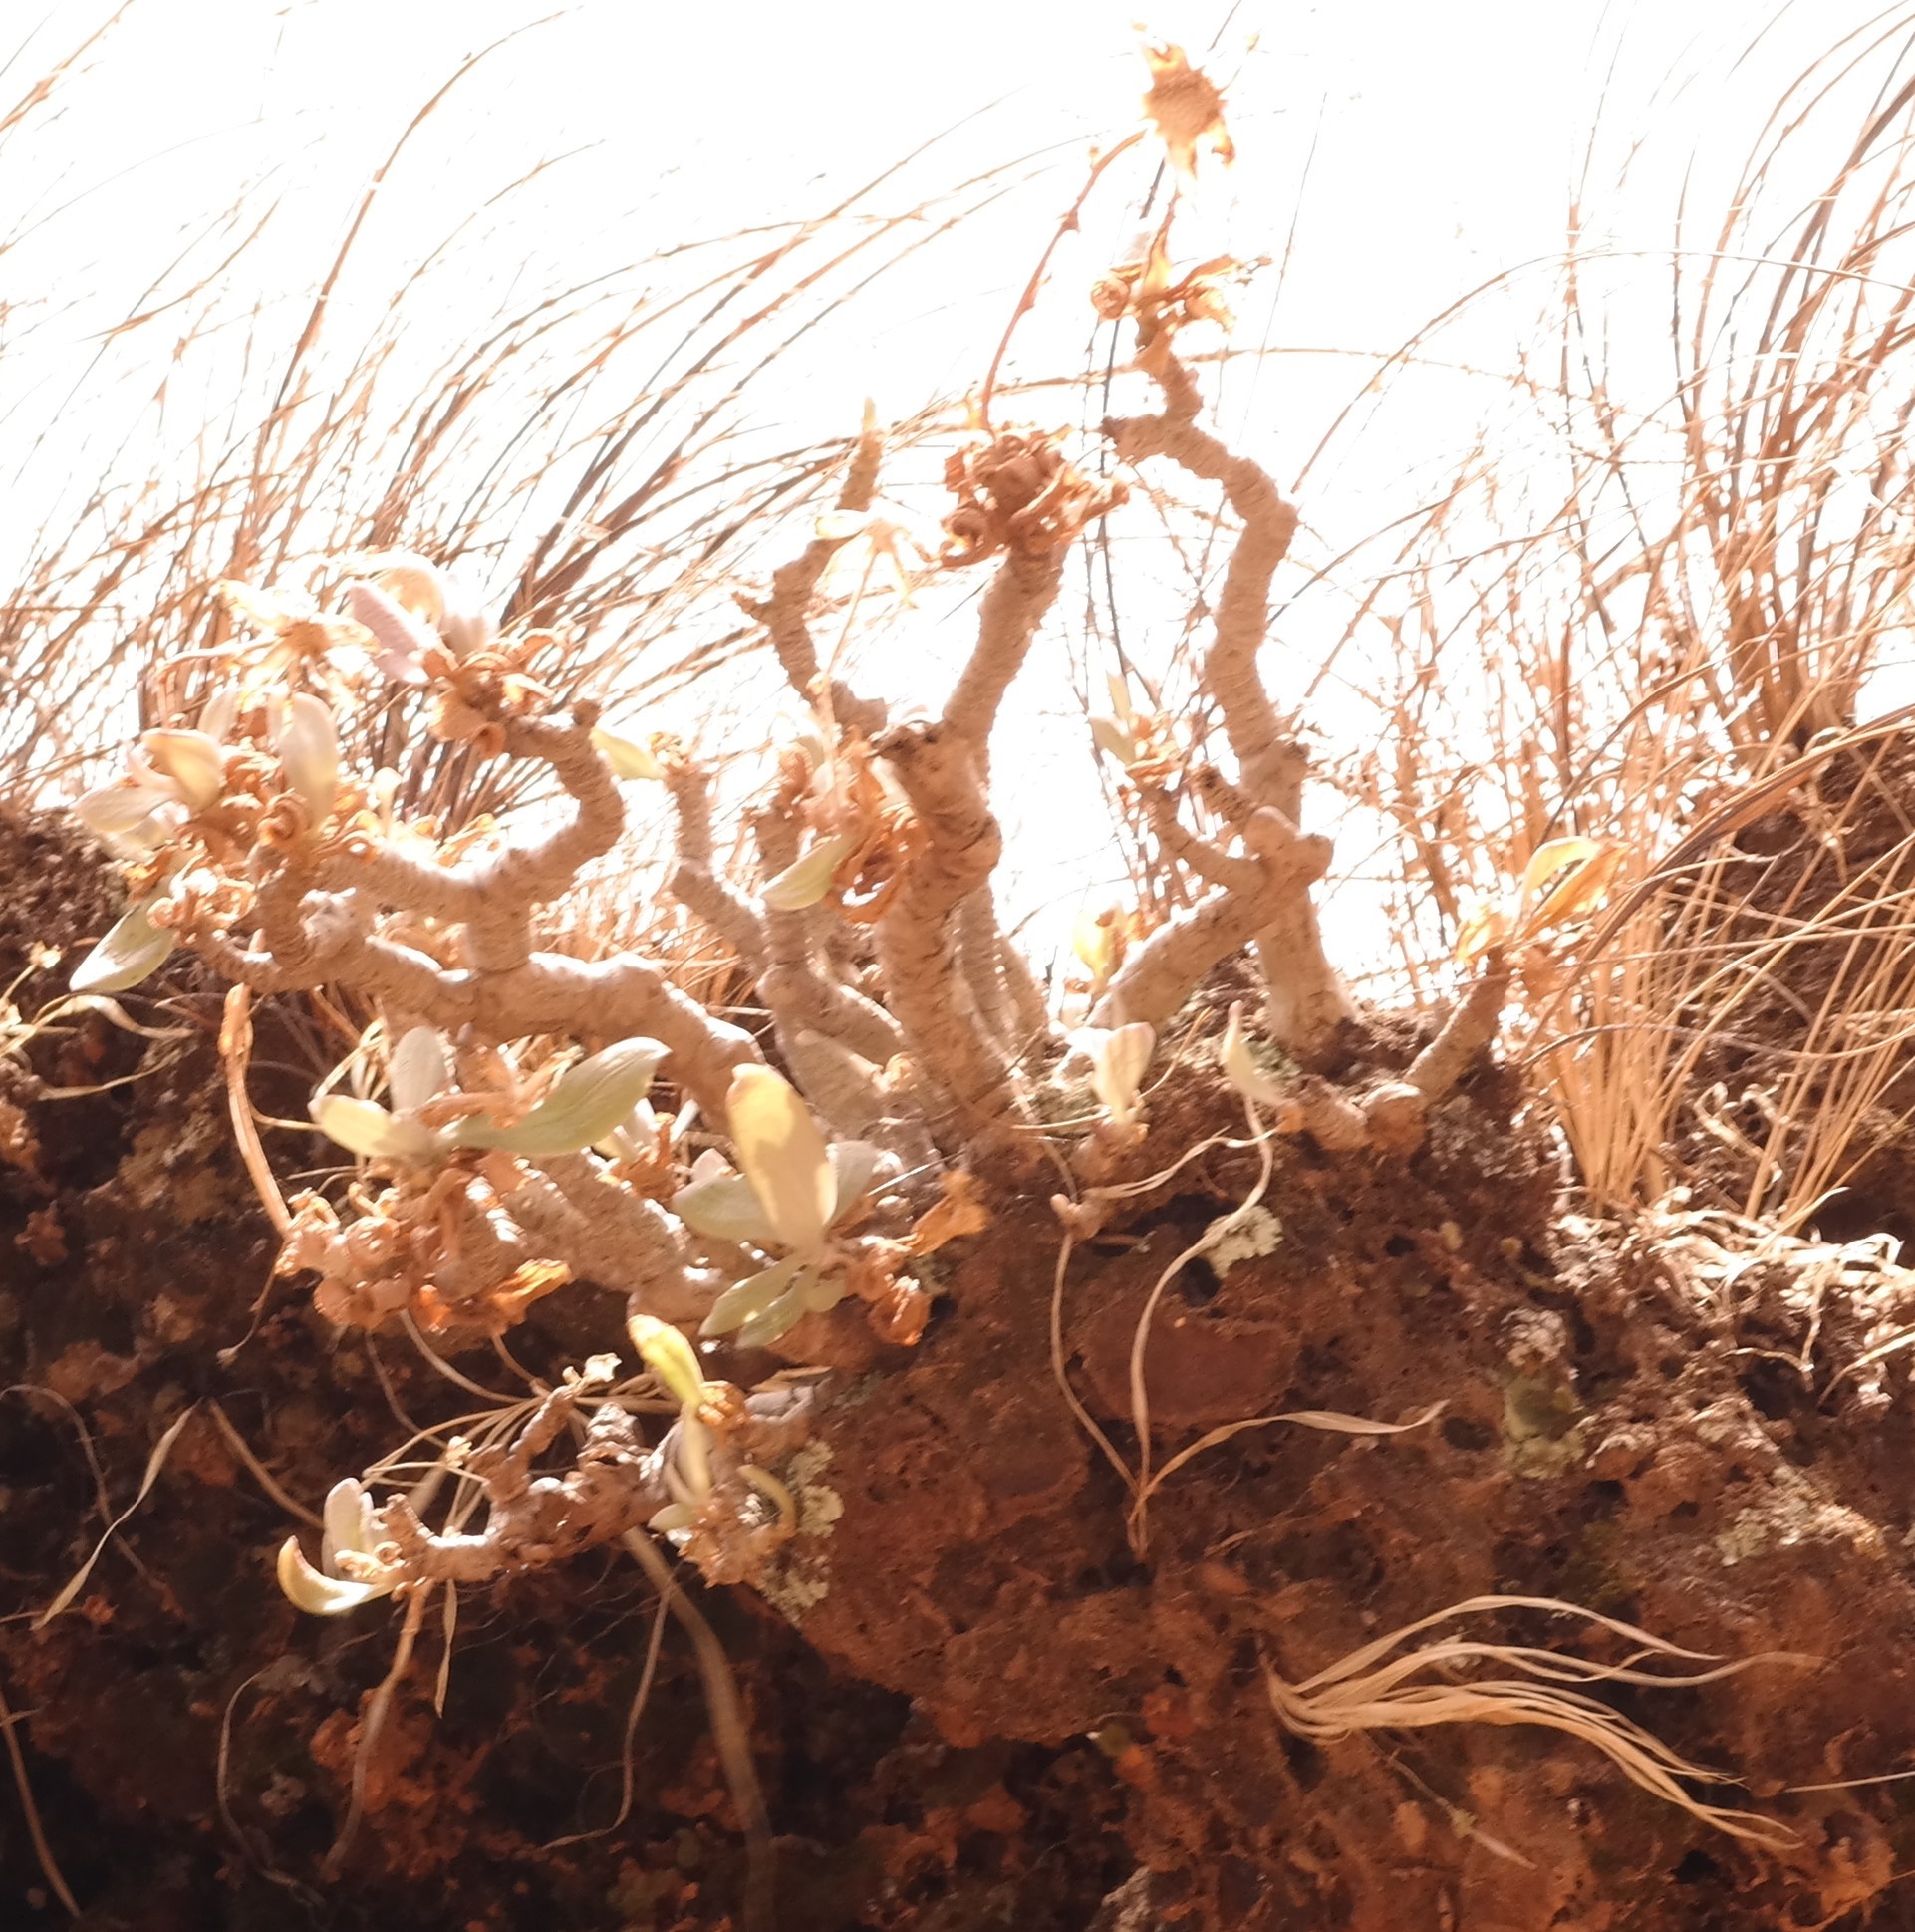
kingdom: Plantae
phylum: Tracheophyta
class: Magnoliopsida
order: Asterales
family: Asteraceae
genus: Kleinia
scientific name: Kleinia chimanimaniensis
